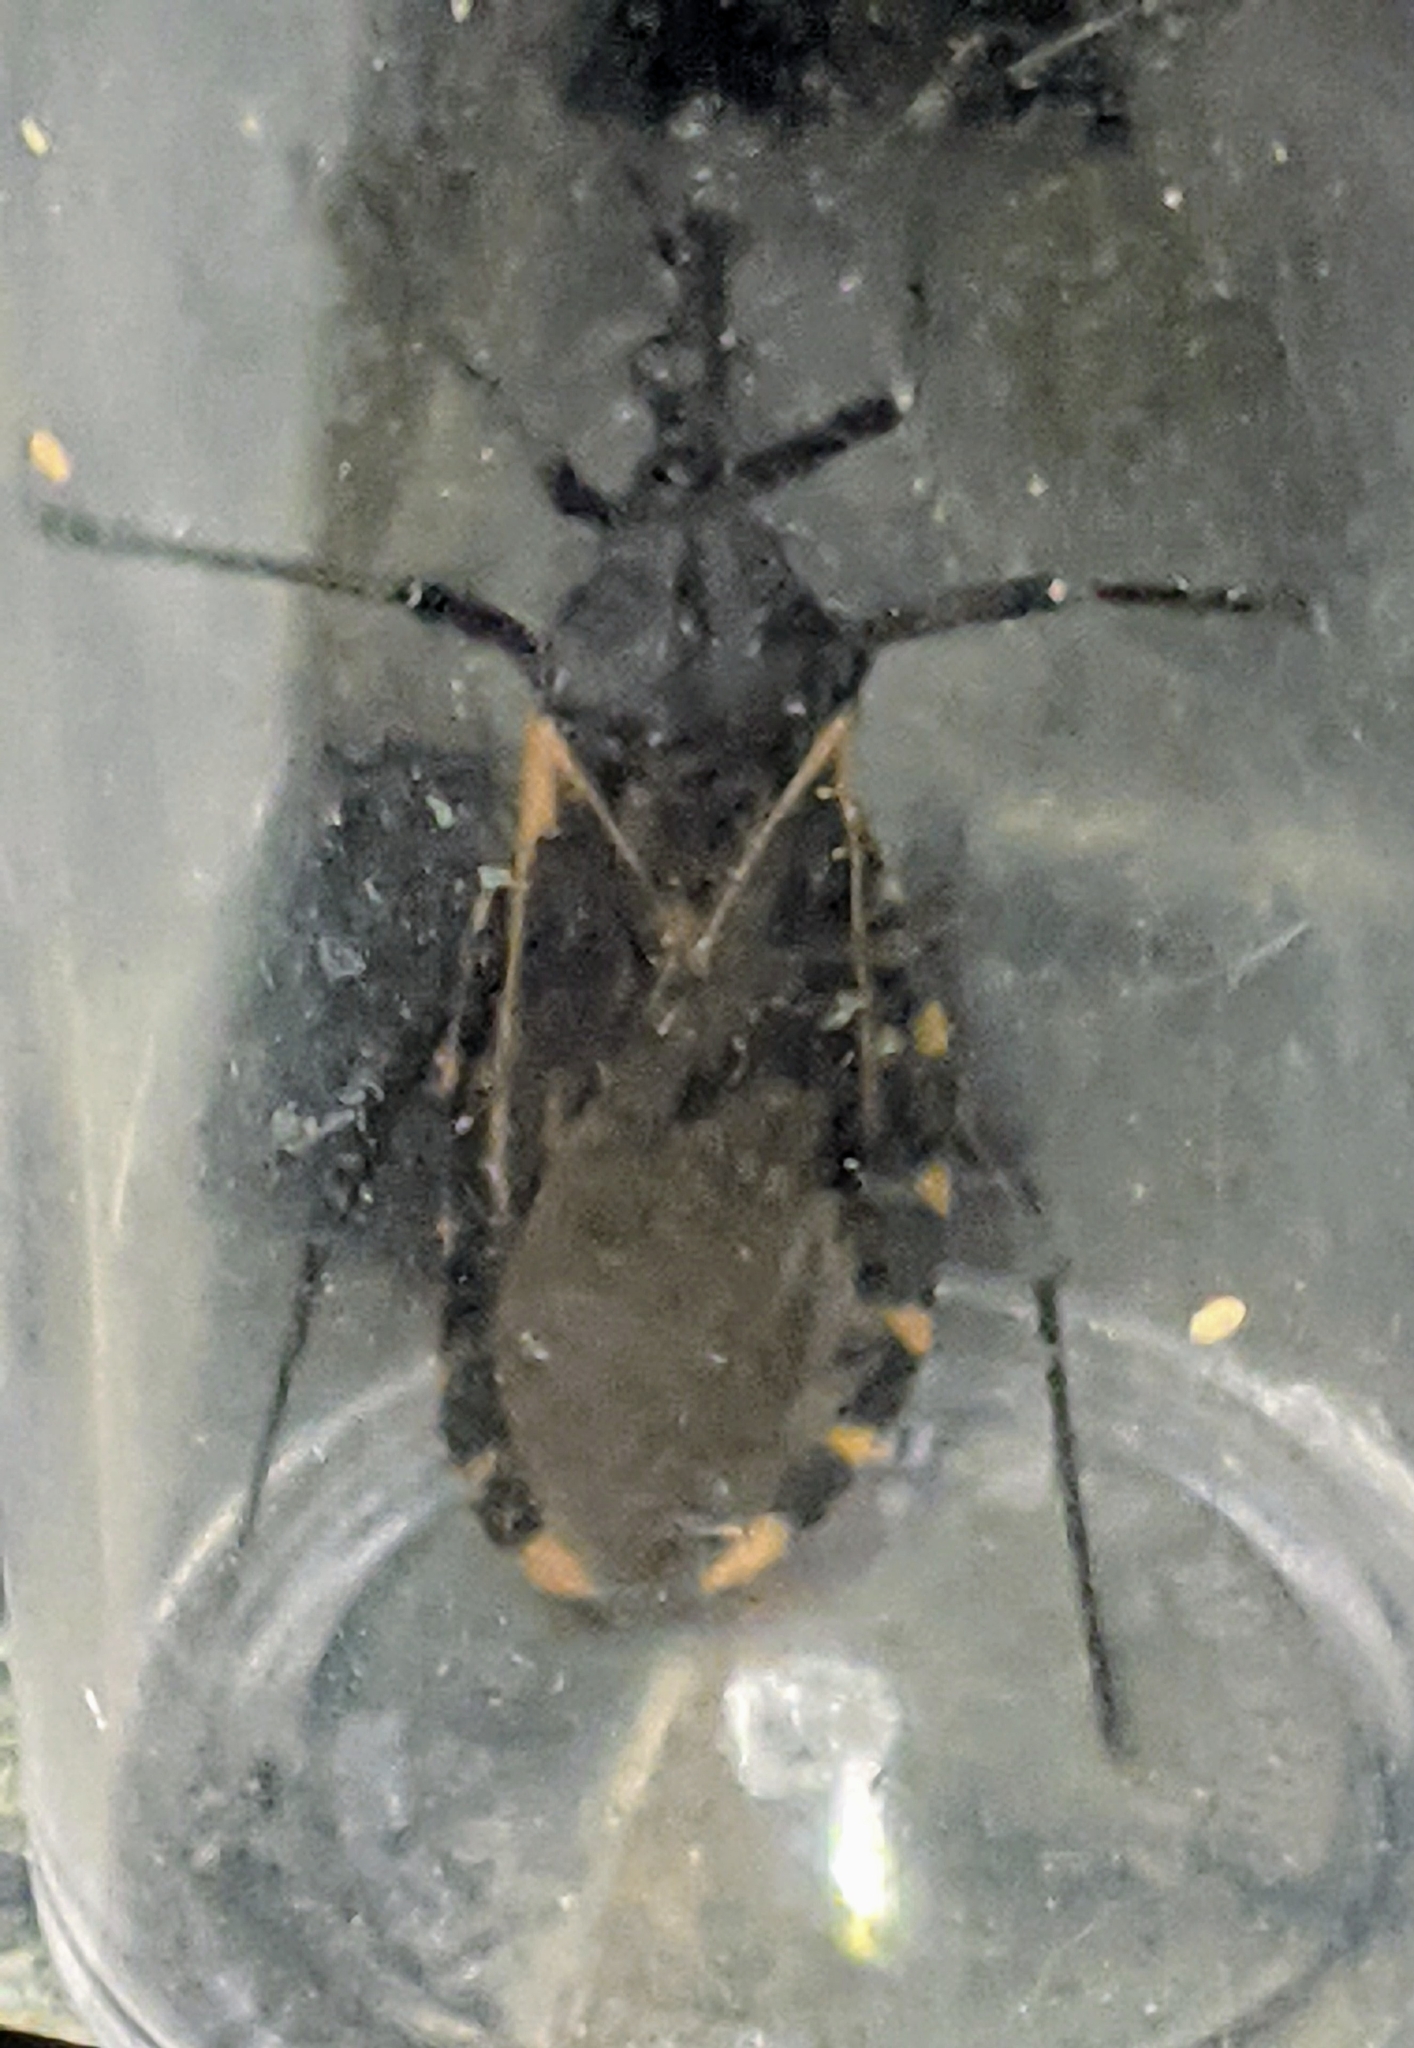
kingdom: Animalia
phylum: Arthropoda
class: Insecta
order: Hemiptera
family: Reduviidae
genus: Triatoma
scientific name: Triatoma gerstaeckeri
